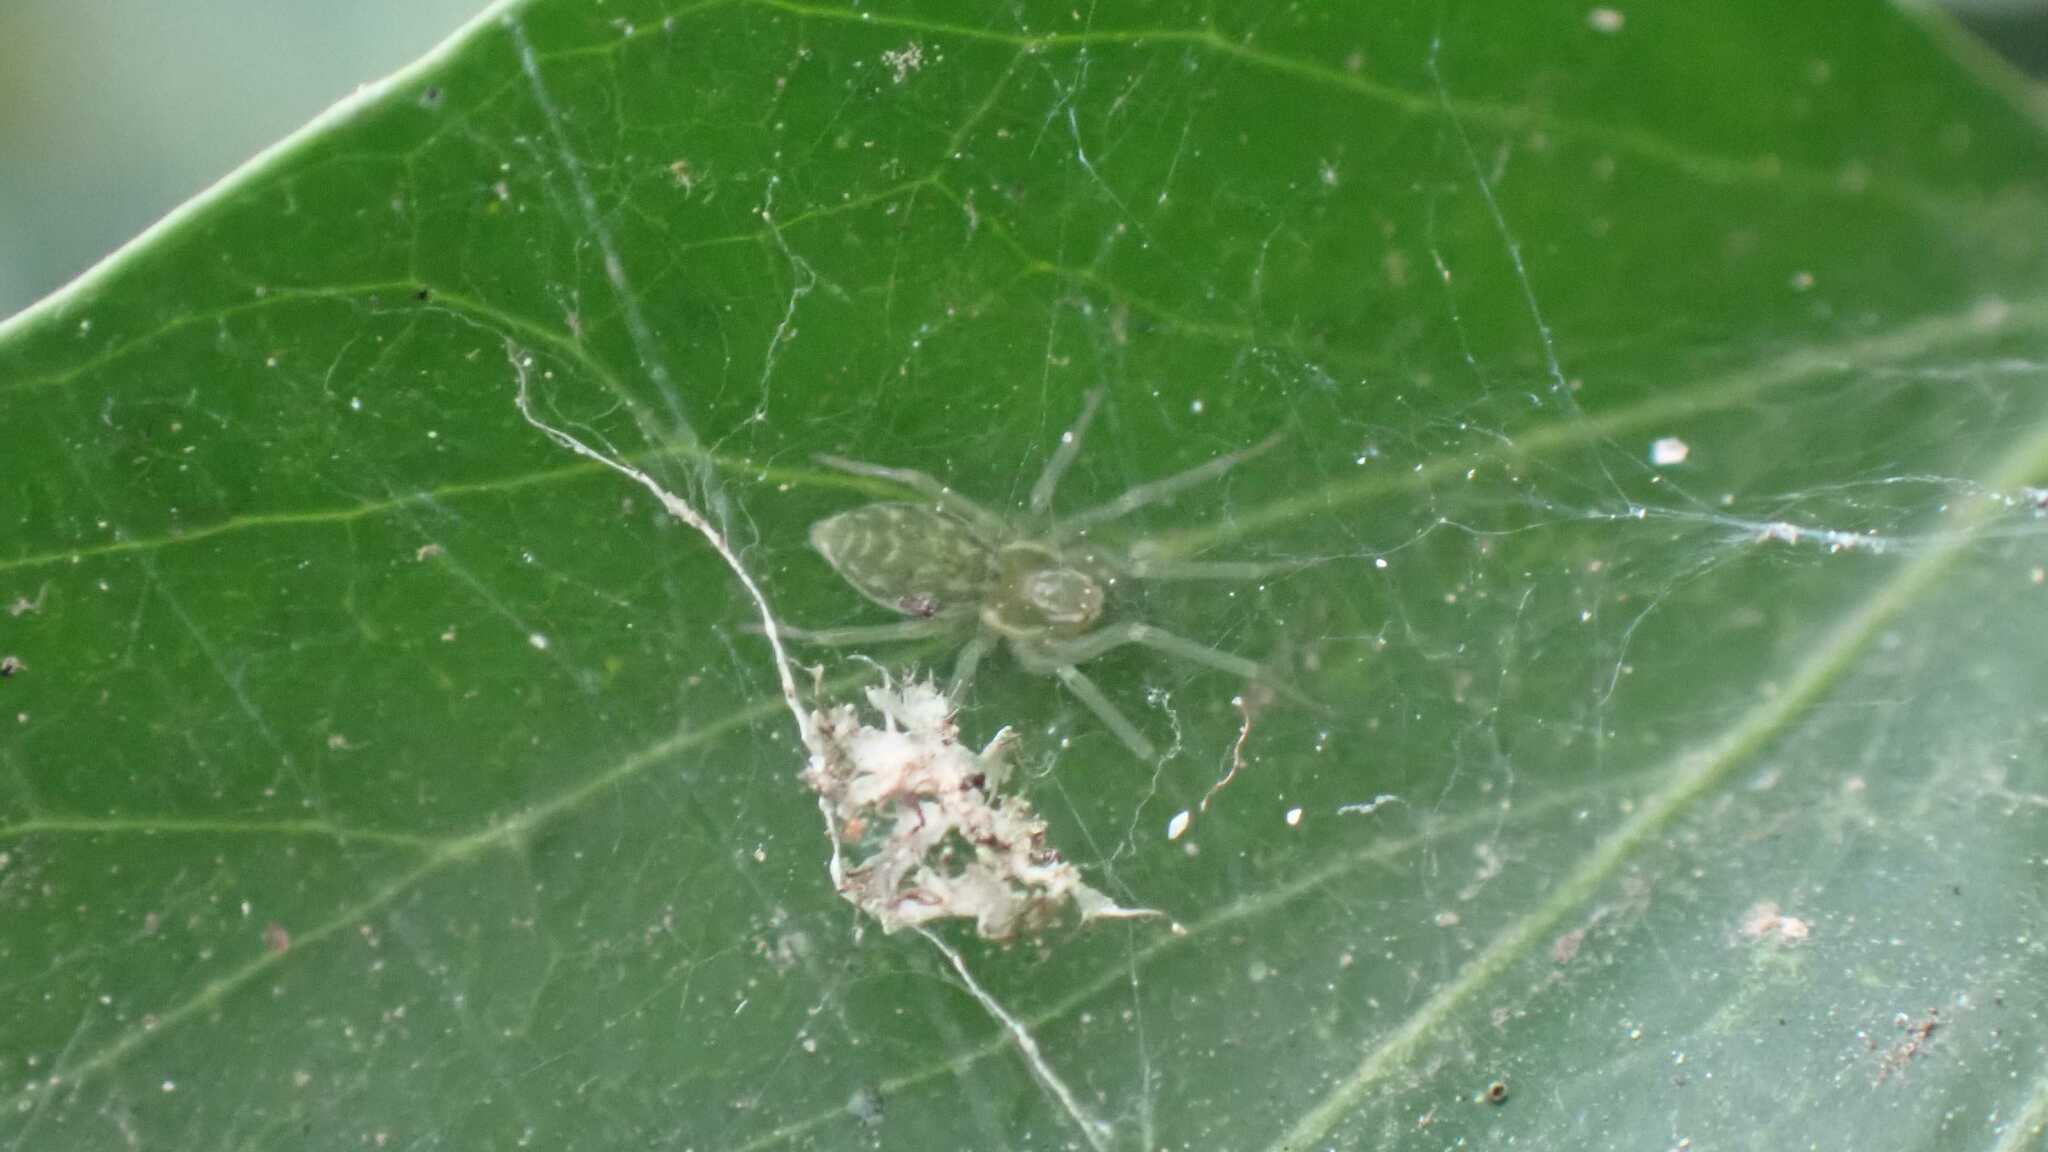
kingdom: Animalia
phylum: Arthropoda
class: Arachnida
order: Araneae
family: Dictynidae
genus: Nigma
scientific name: Nigma walckenaeri
